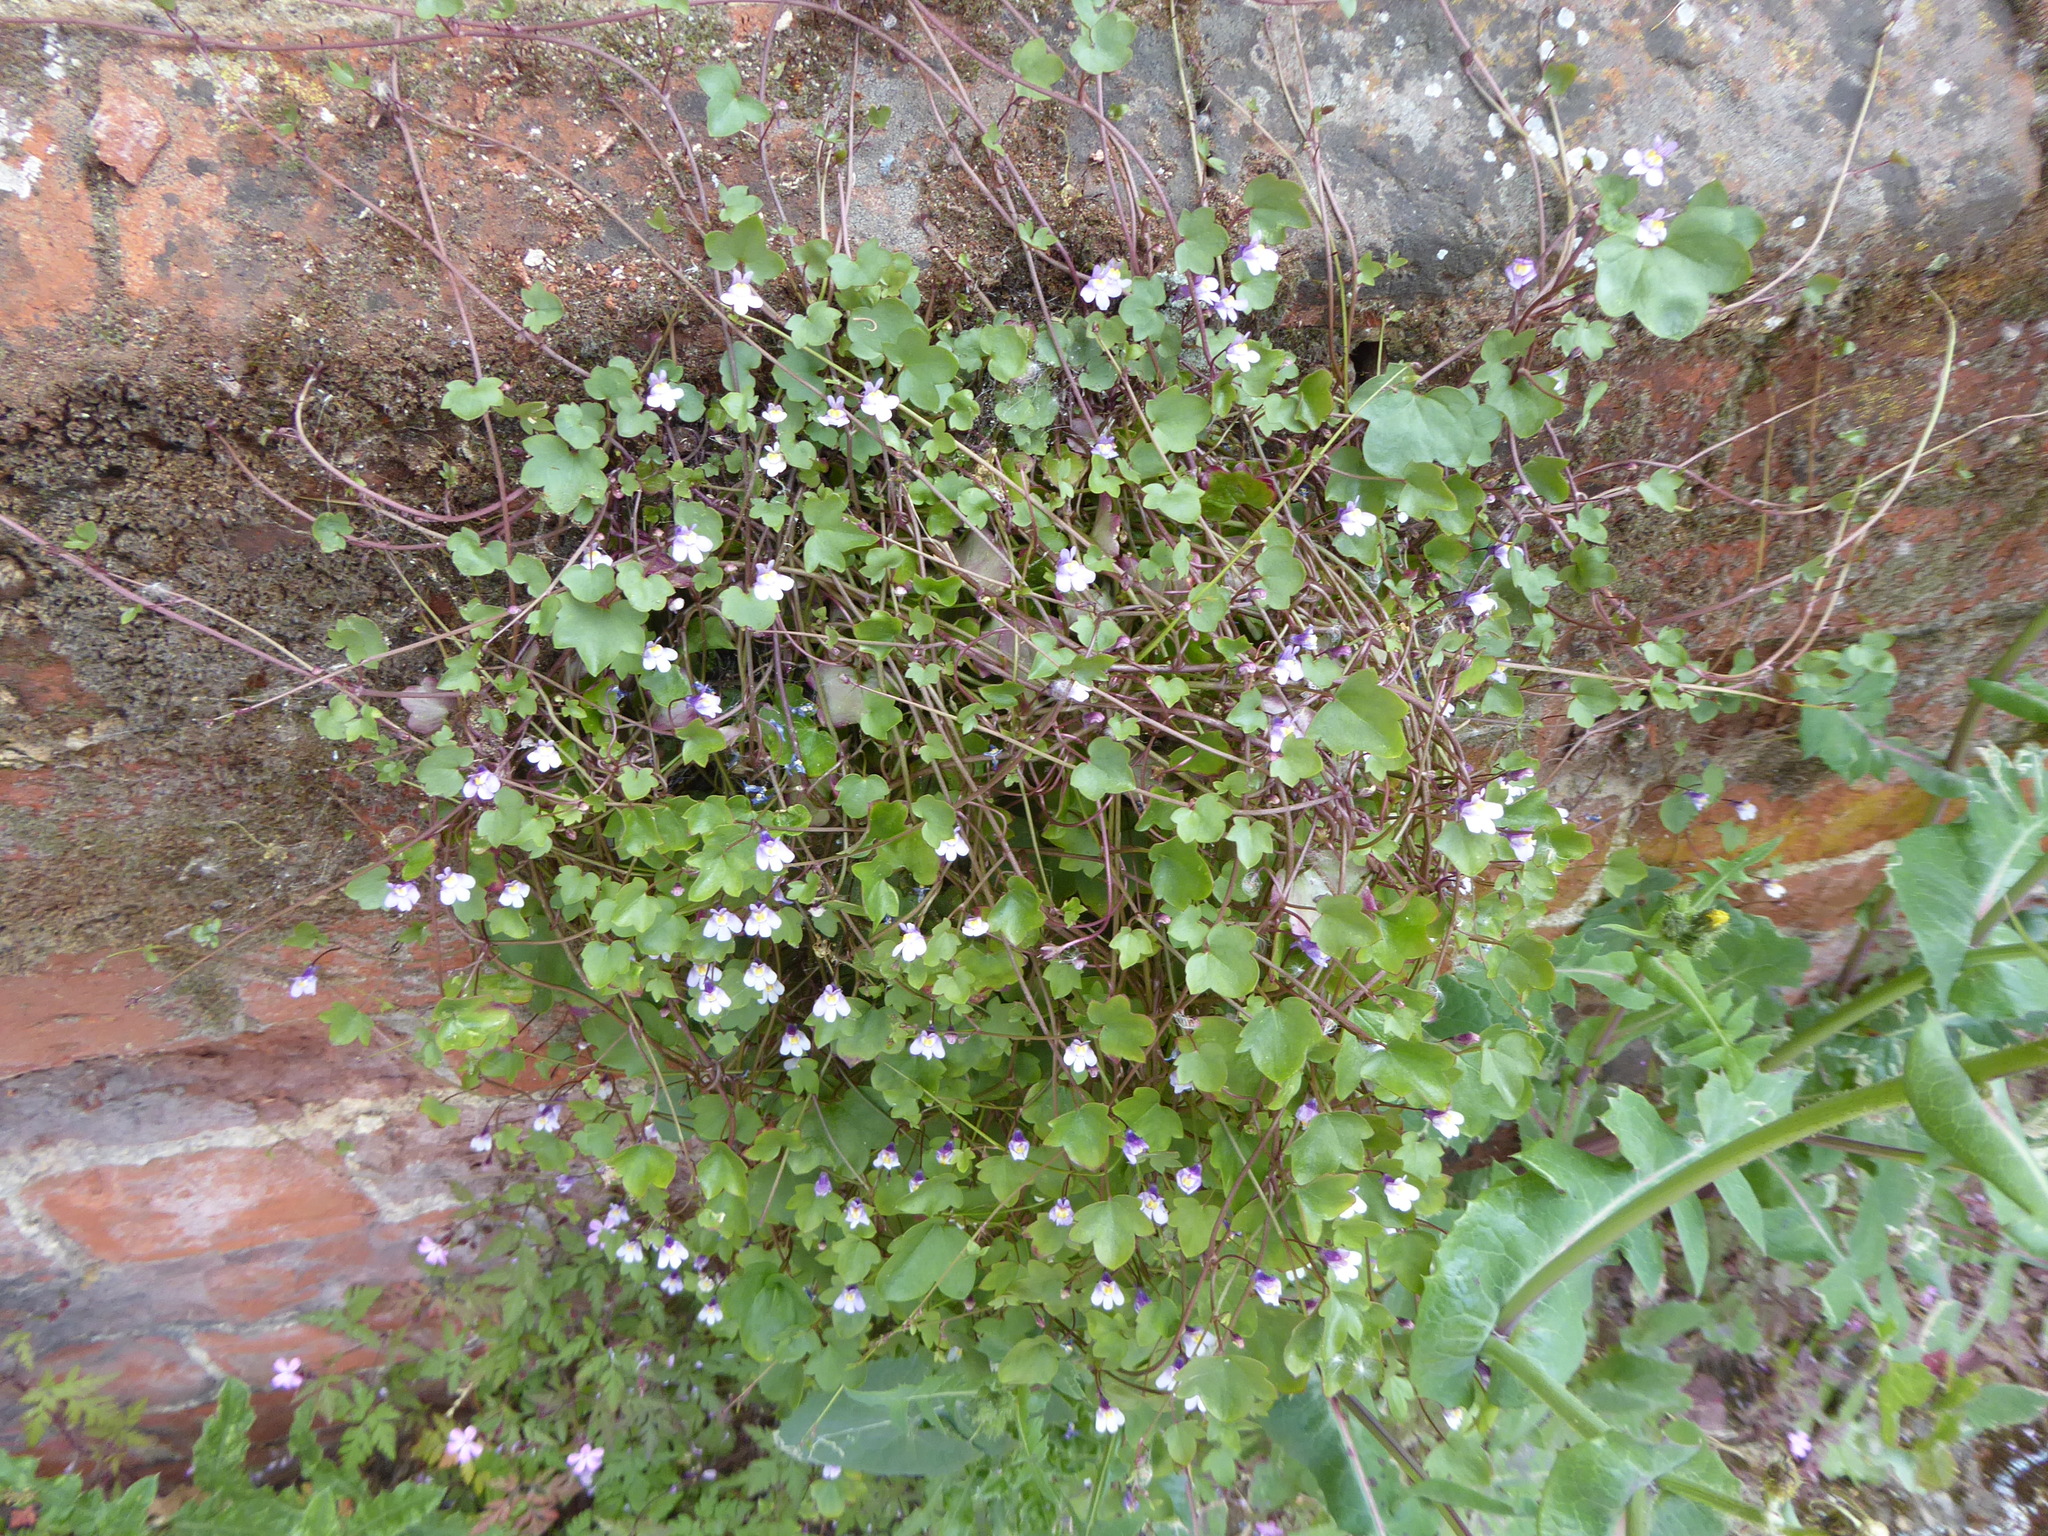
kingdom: Plantae
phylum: Tracheophyta
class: Magnoliopsida
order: Lamiales
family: Plantaginaceae
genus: Cymbalaria
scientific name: Cymbalaria muralis
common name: Ivy-leaved toadflax
